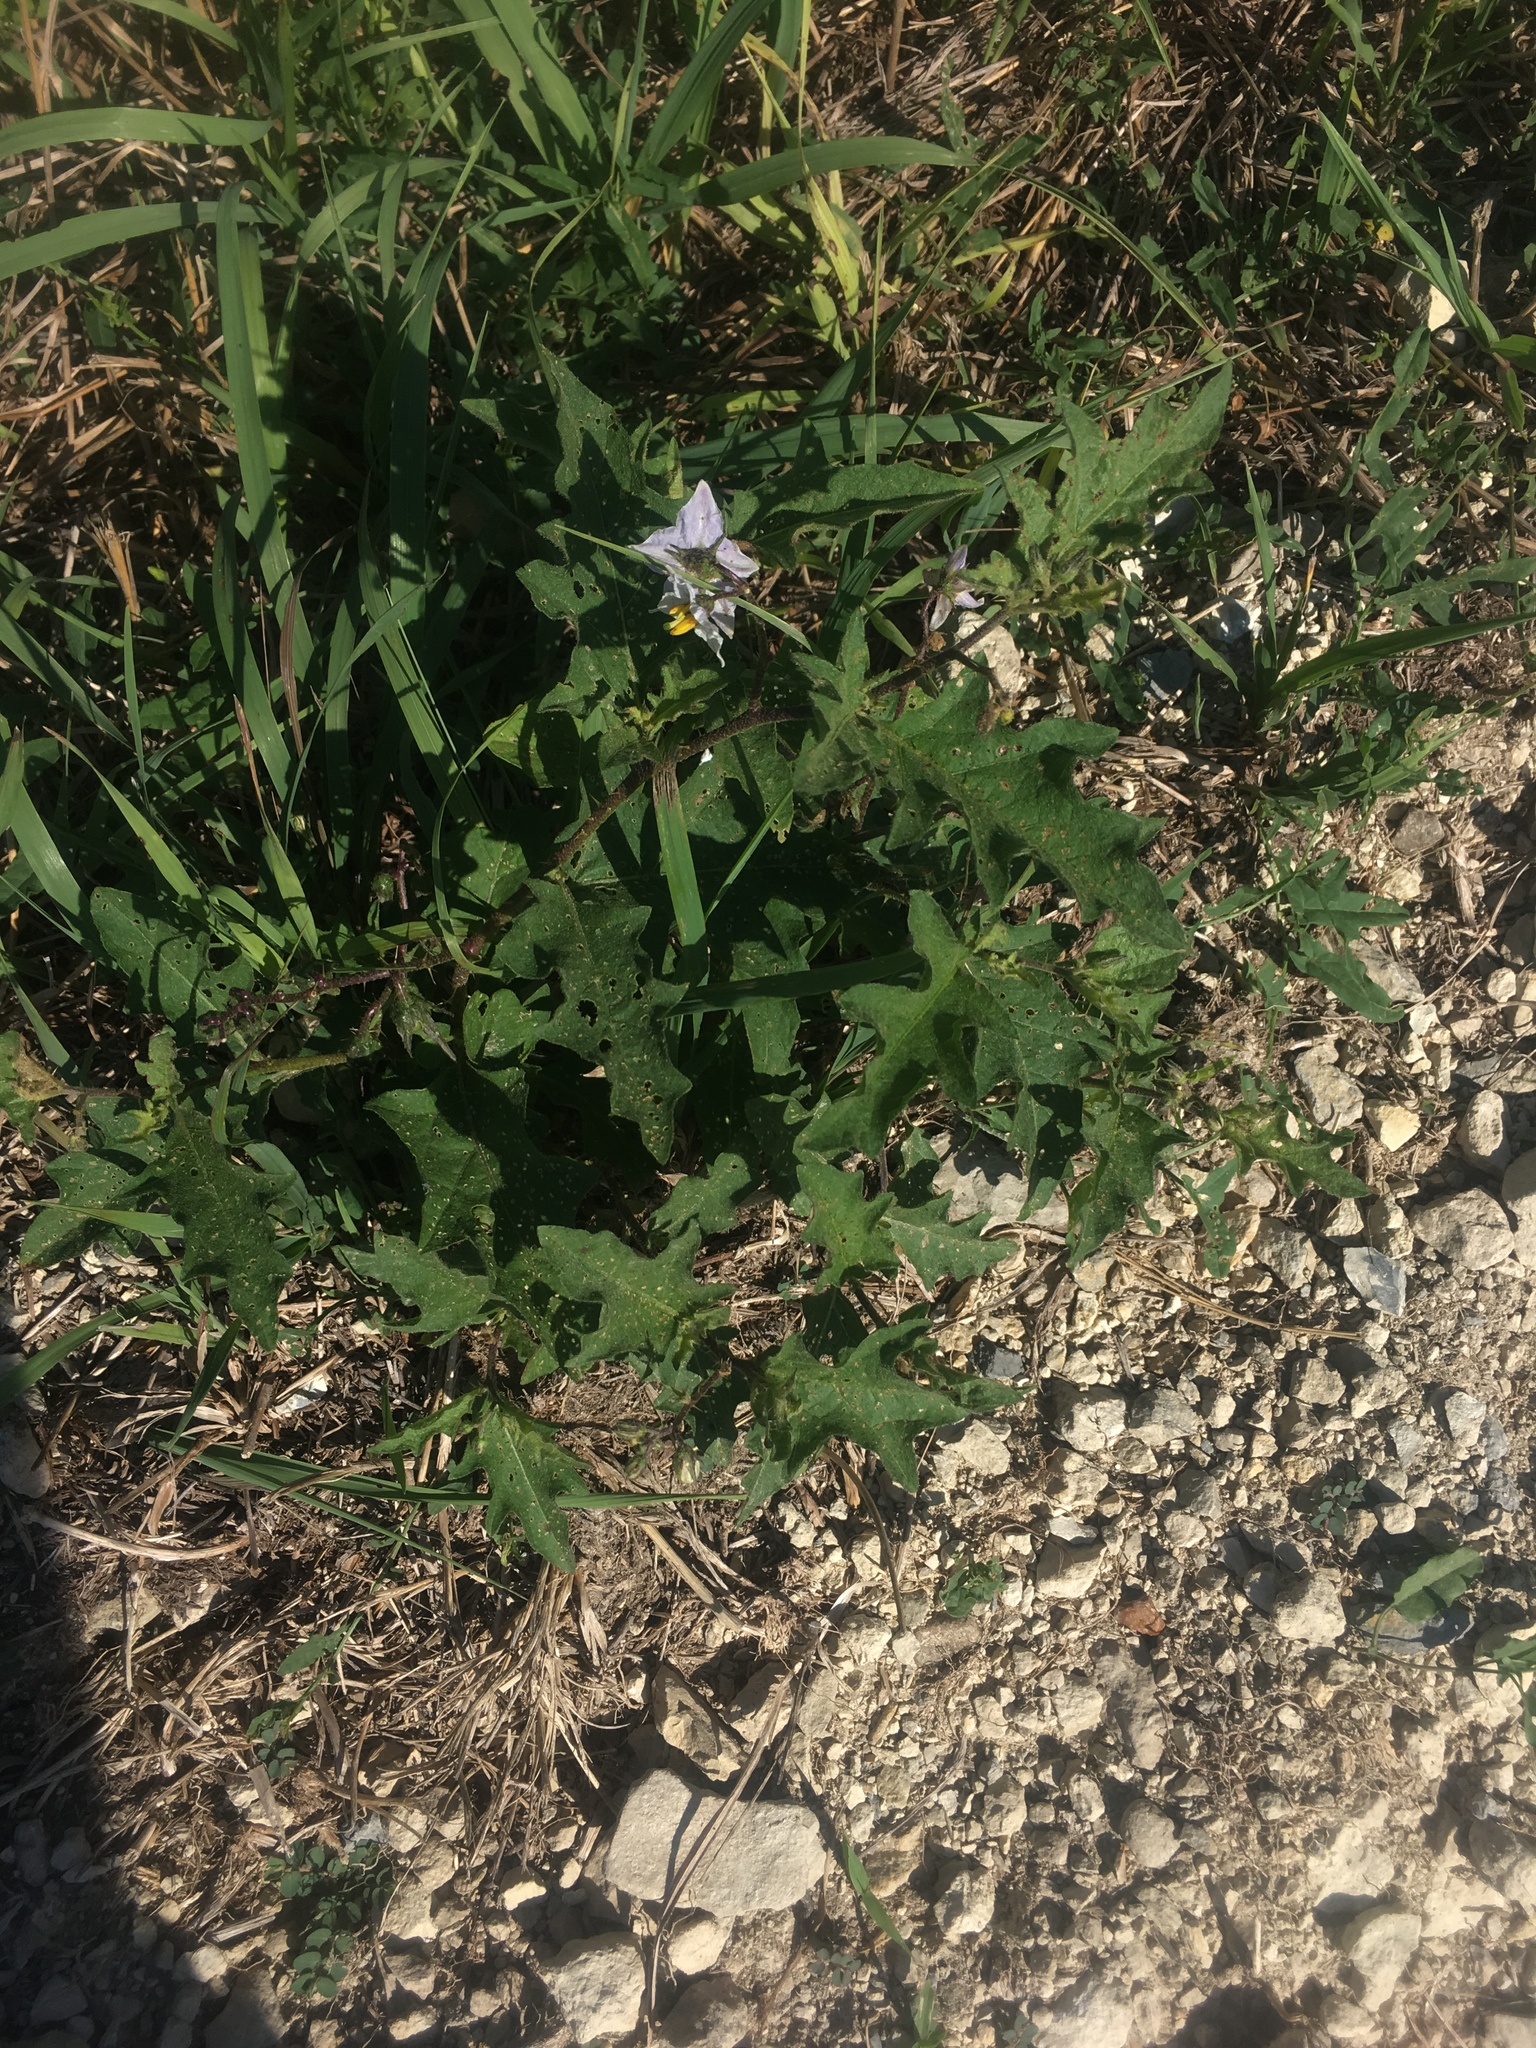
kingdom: Plantae
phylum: Tracheophyta
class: Magnoliopsida
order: Solanales
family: Solanaceae
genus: Solanum
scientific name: Solanum carolinense
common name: Horse-nettle
